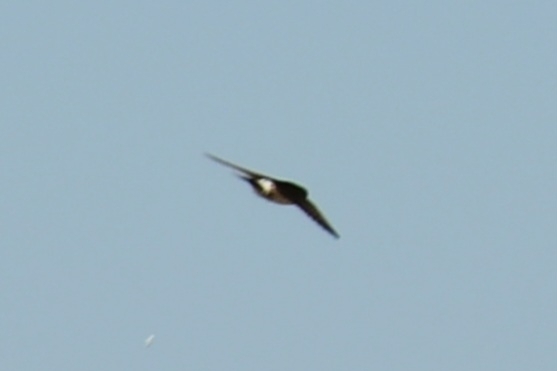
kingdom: Animalia
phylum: Chordata
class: Aves
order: Passeriformes
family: Hirundinidae
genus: Delichon
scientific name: Delichon urbicum
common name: Common house martin
